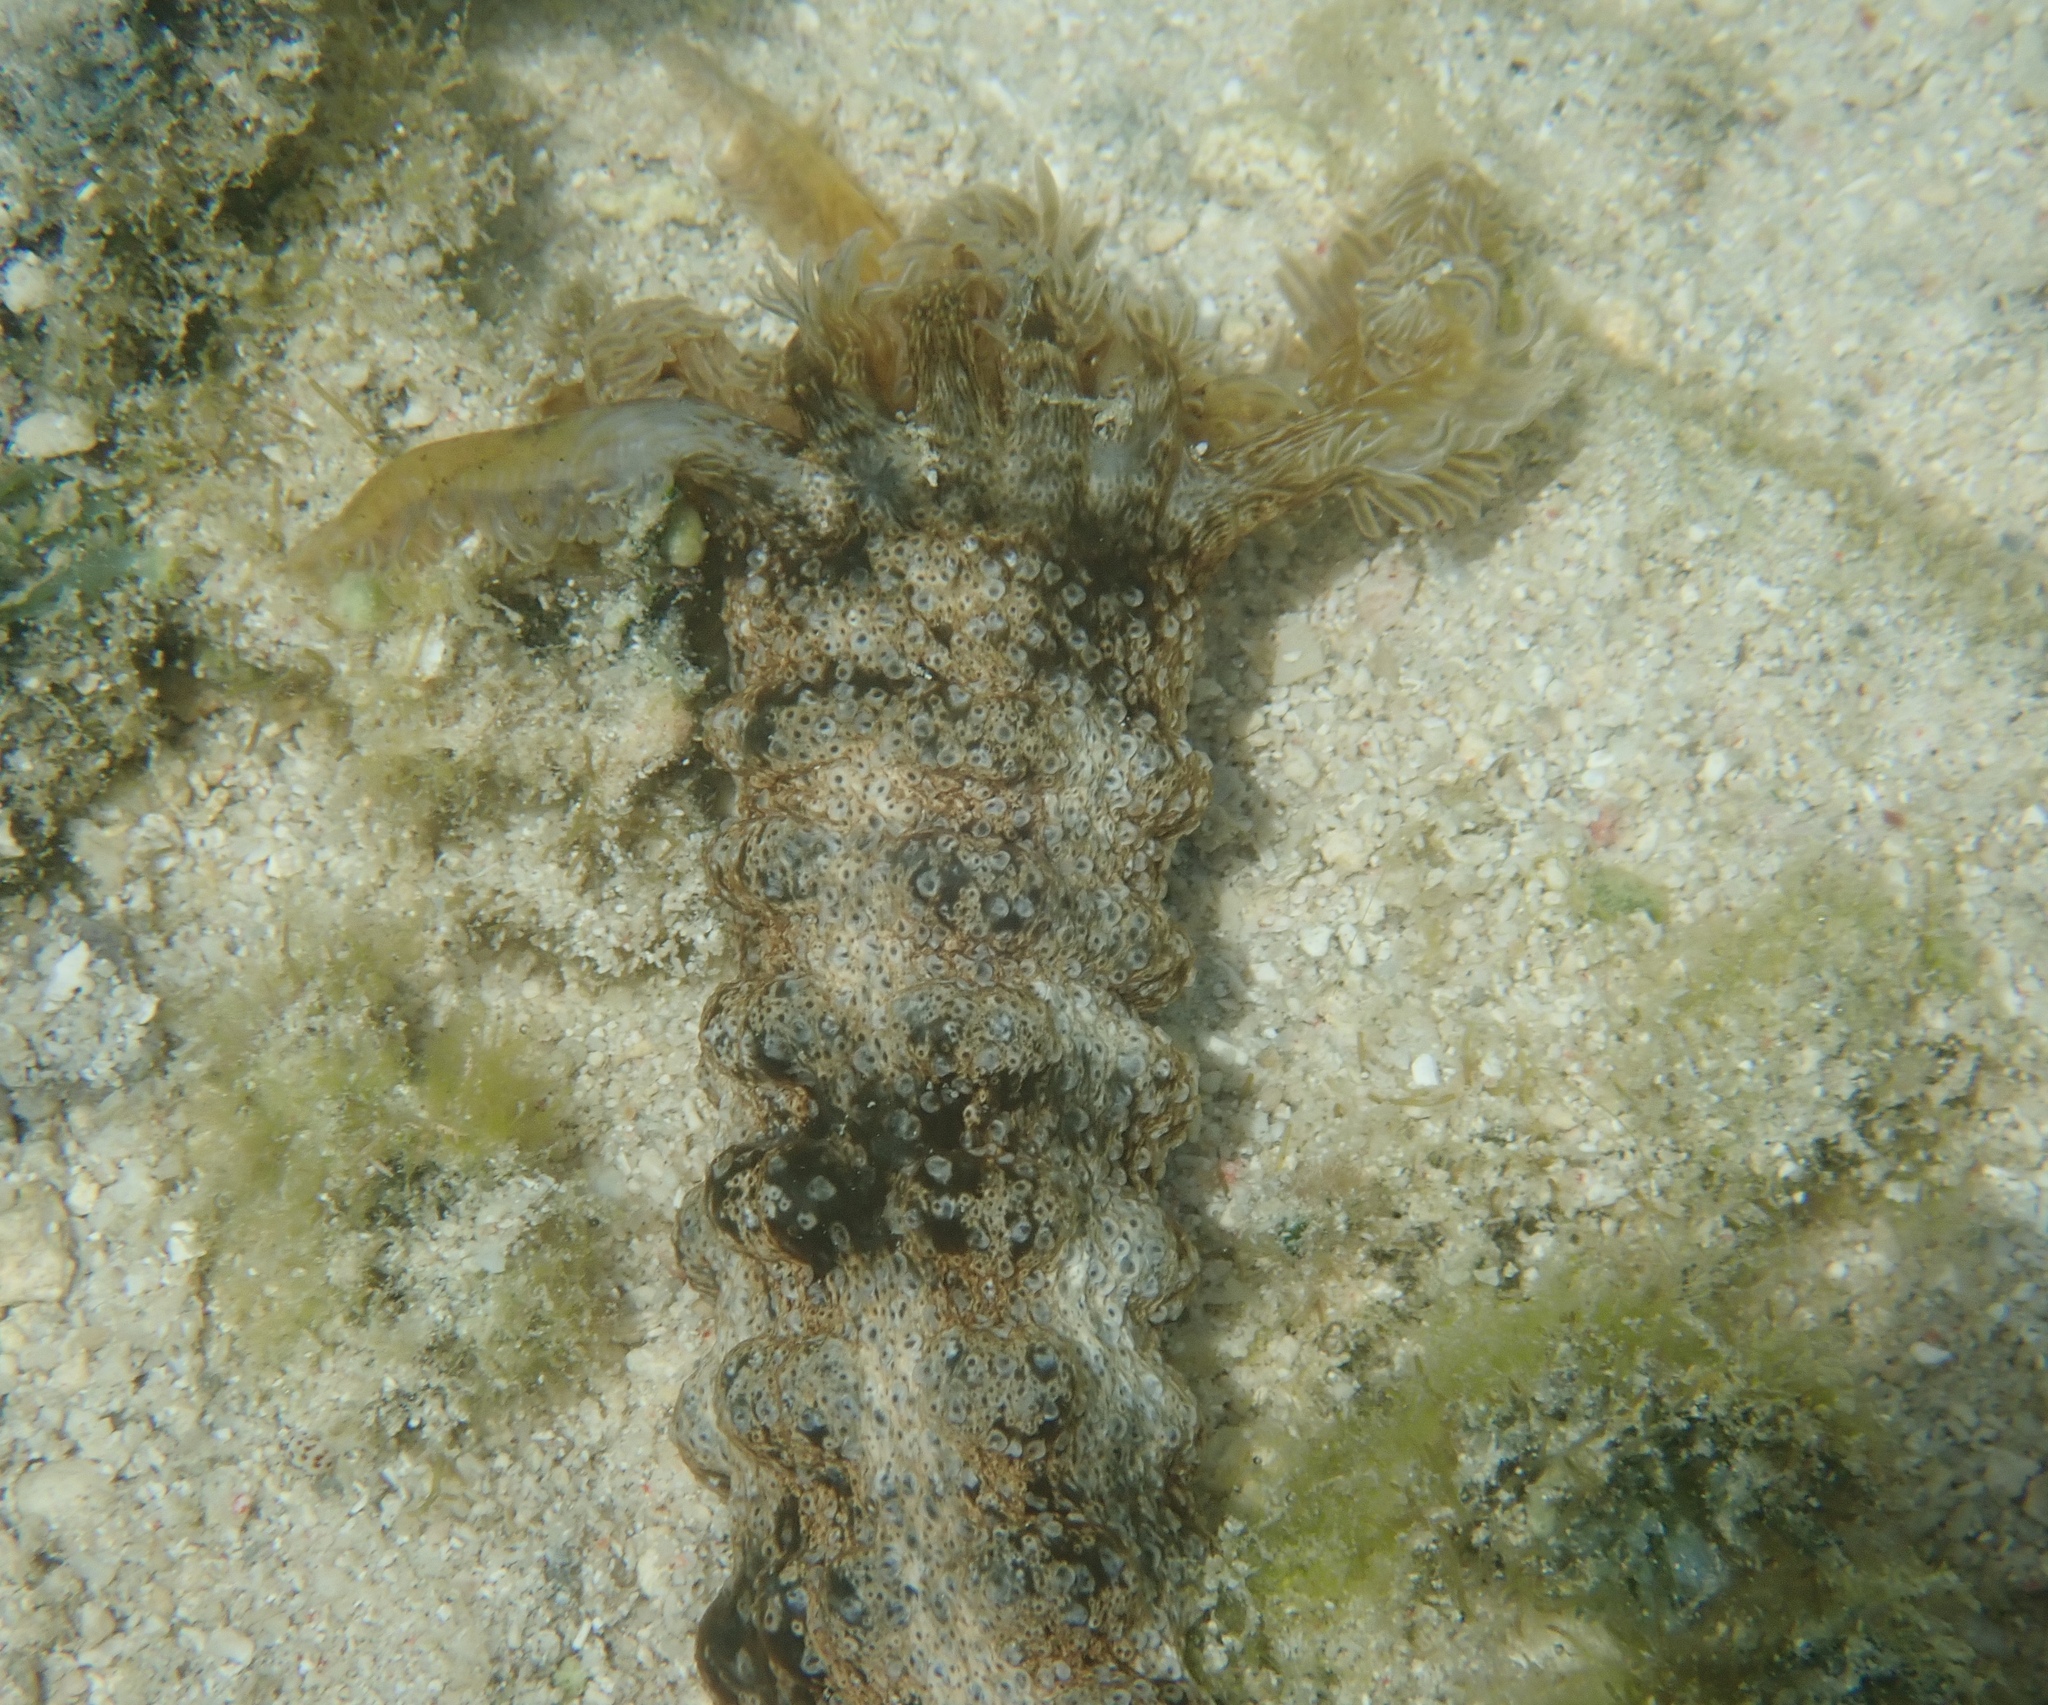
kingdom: Animalia
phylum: Echinodermata
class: Holothuroidea
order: Apodida
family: Synaptidae
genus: Synapta
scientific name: Synapta maculata
